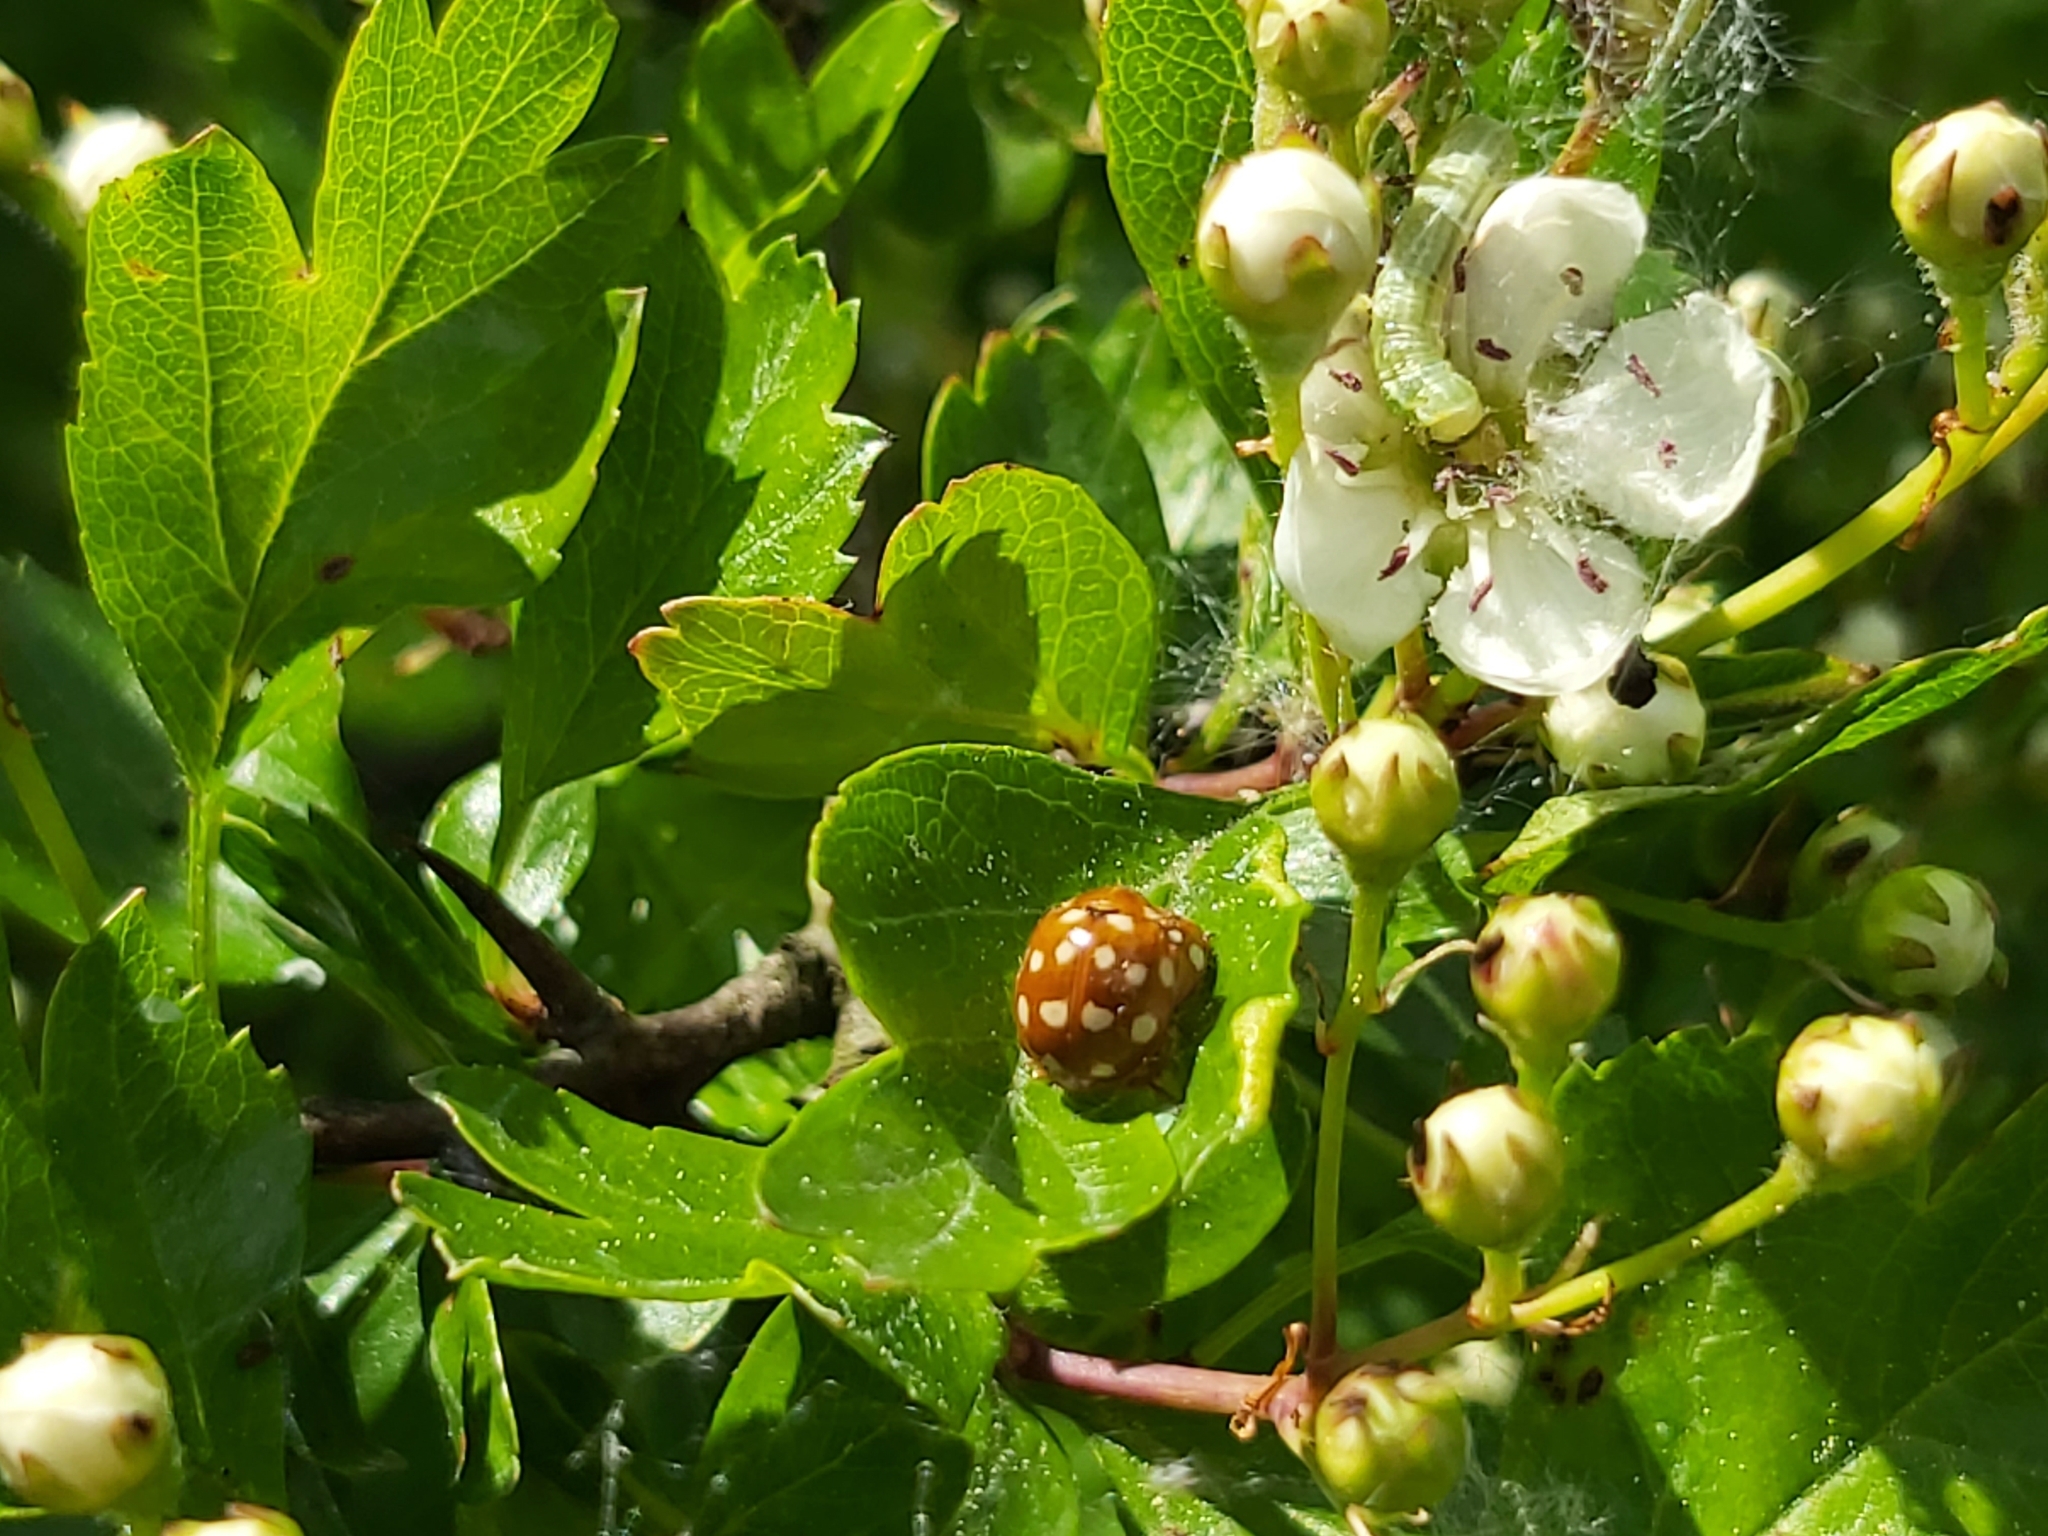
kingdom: Animalia
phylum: Arthropoda
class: Insecta
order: Coleoptera
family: Coccinellidae
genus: Calvia
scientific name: Calvia quatuordecimguttata
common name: Cream-spot ladybird
